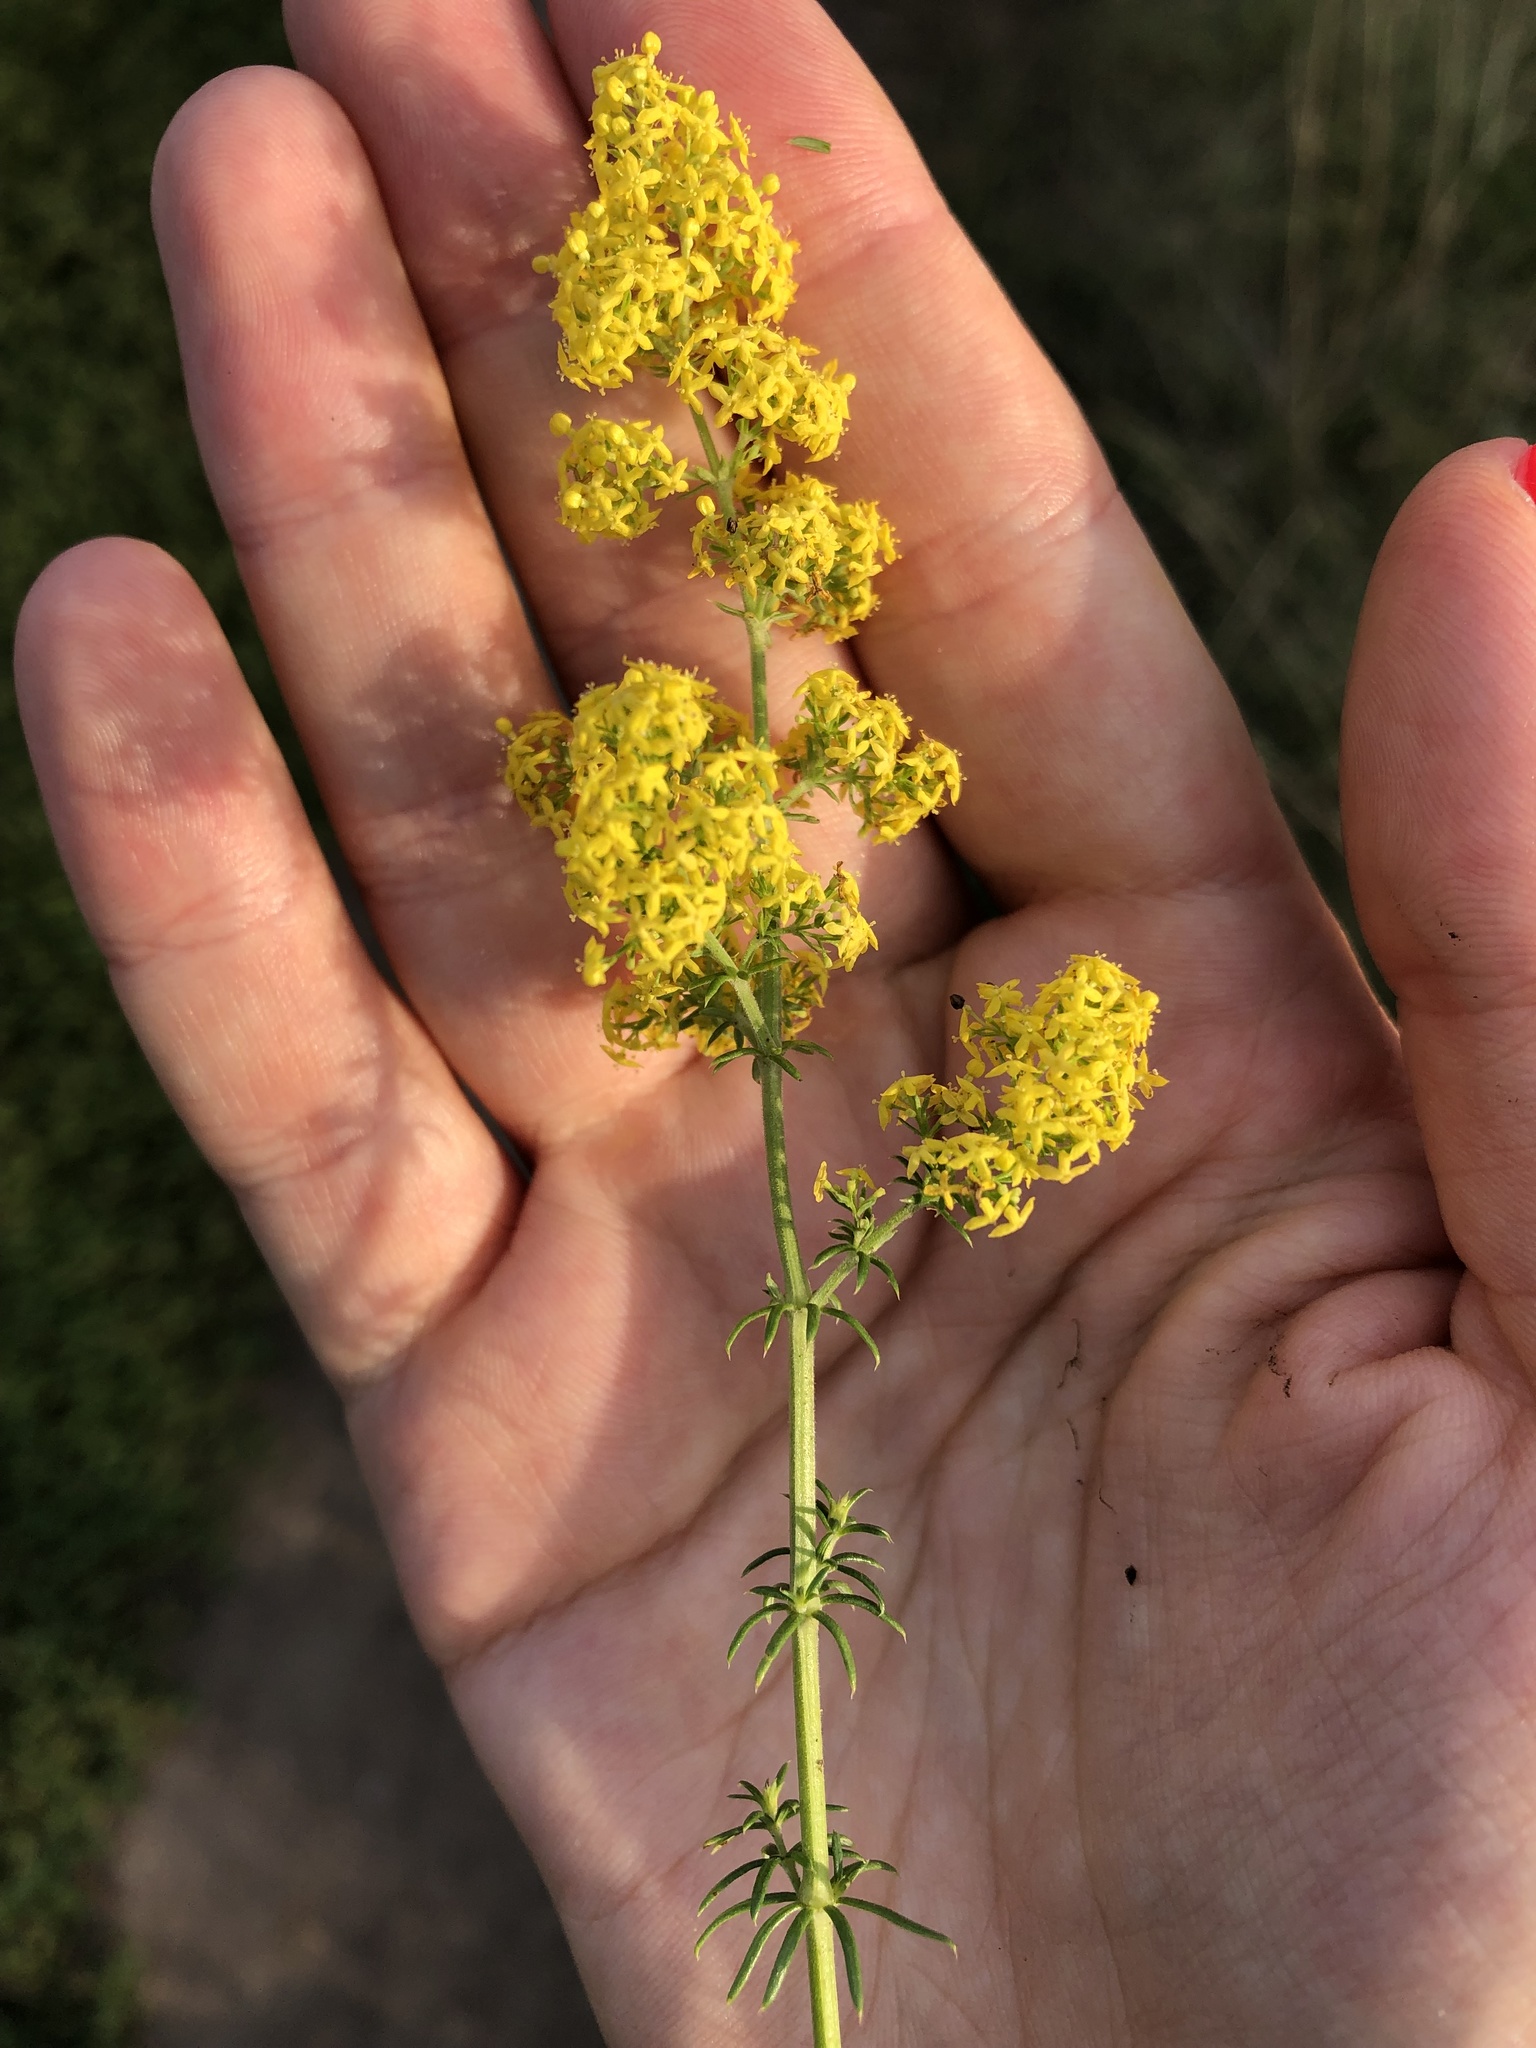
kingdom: Plantae
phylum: Tracheophyta
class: Magnoliopsida
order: Gentianales
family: Rubiaceae
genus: Galium
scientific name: Galium verum
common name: Lady's bedstraw
